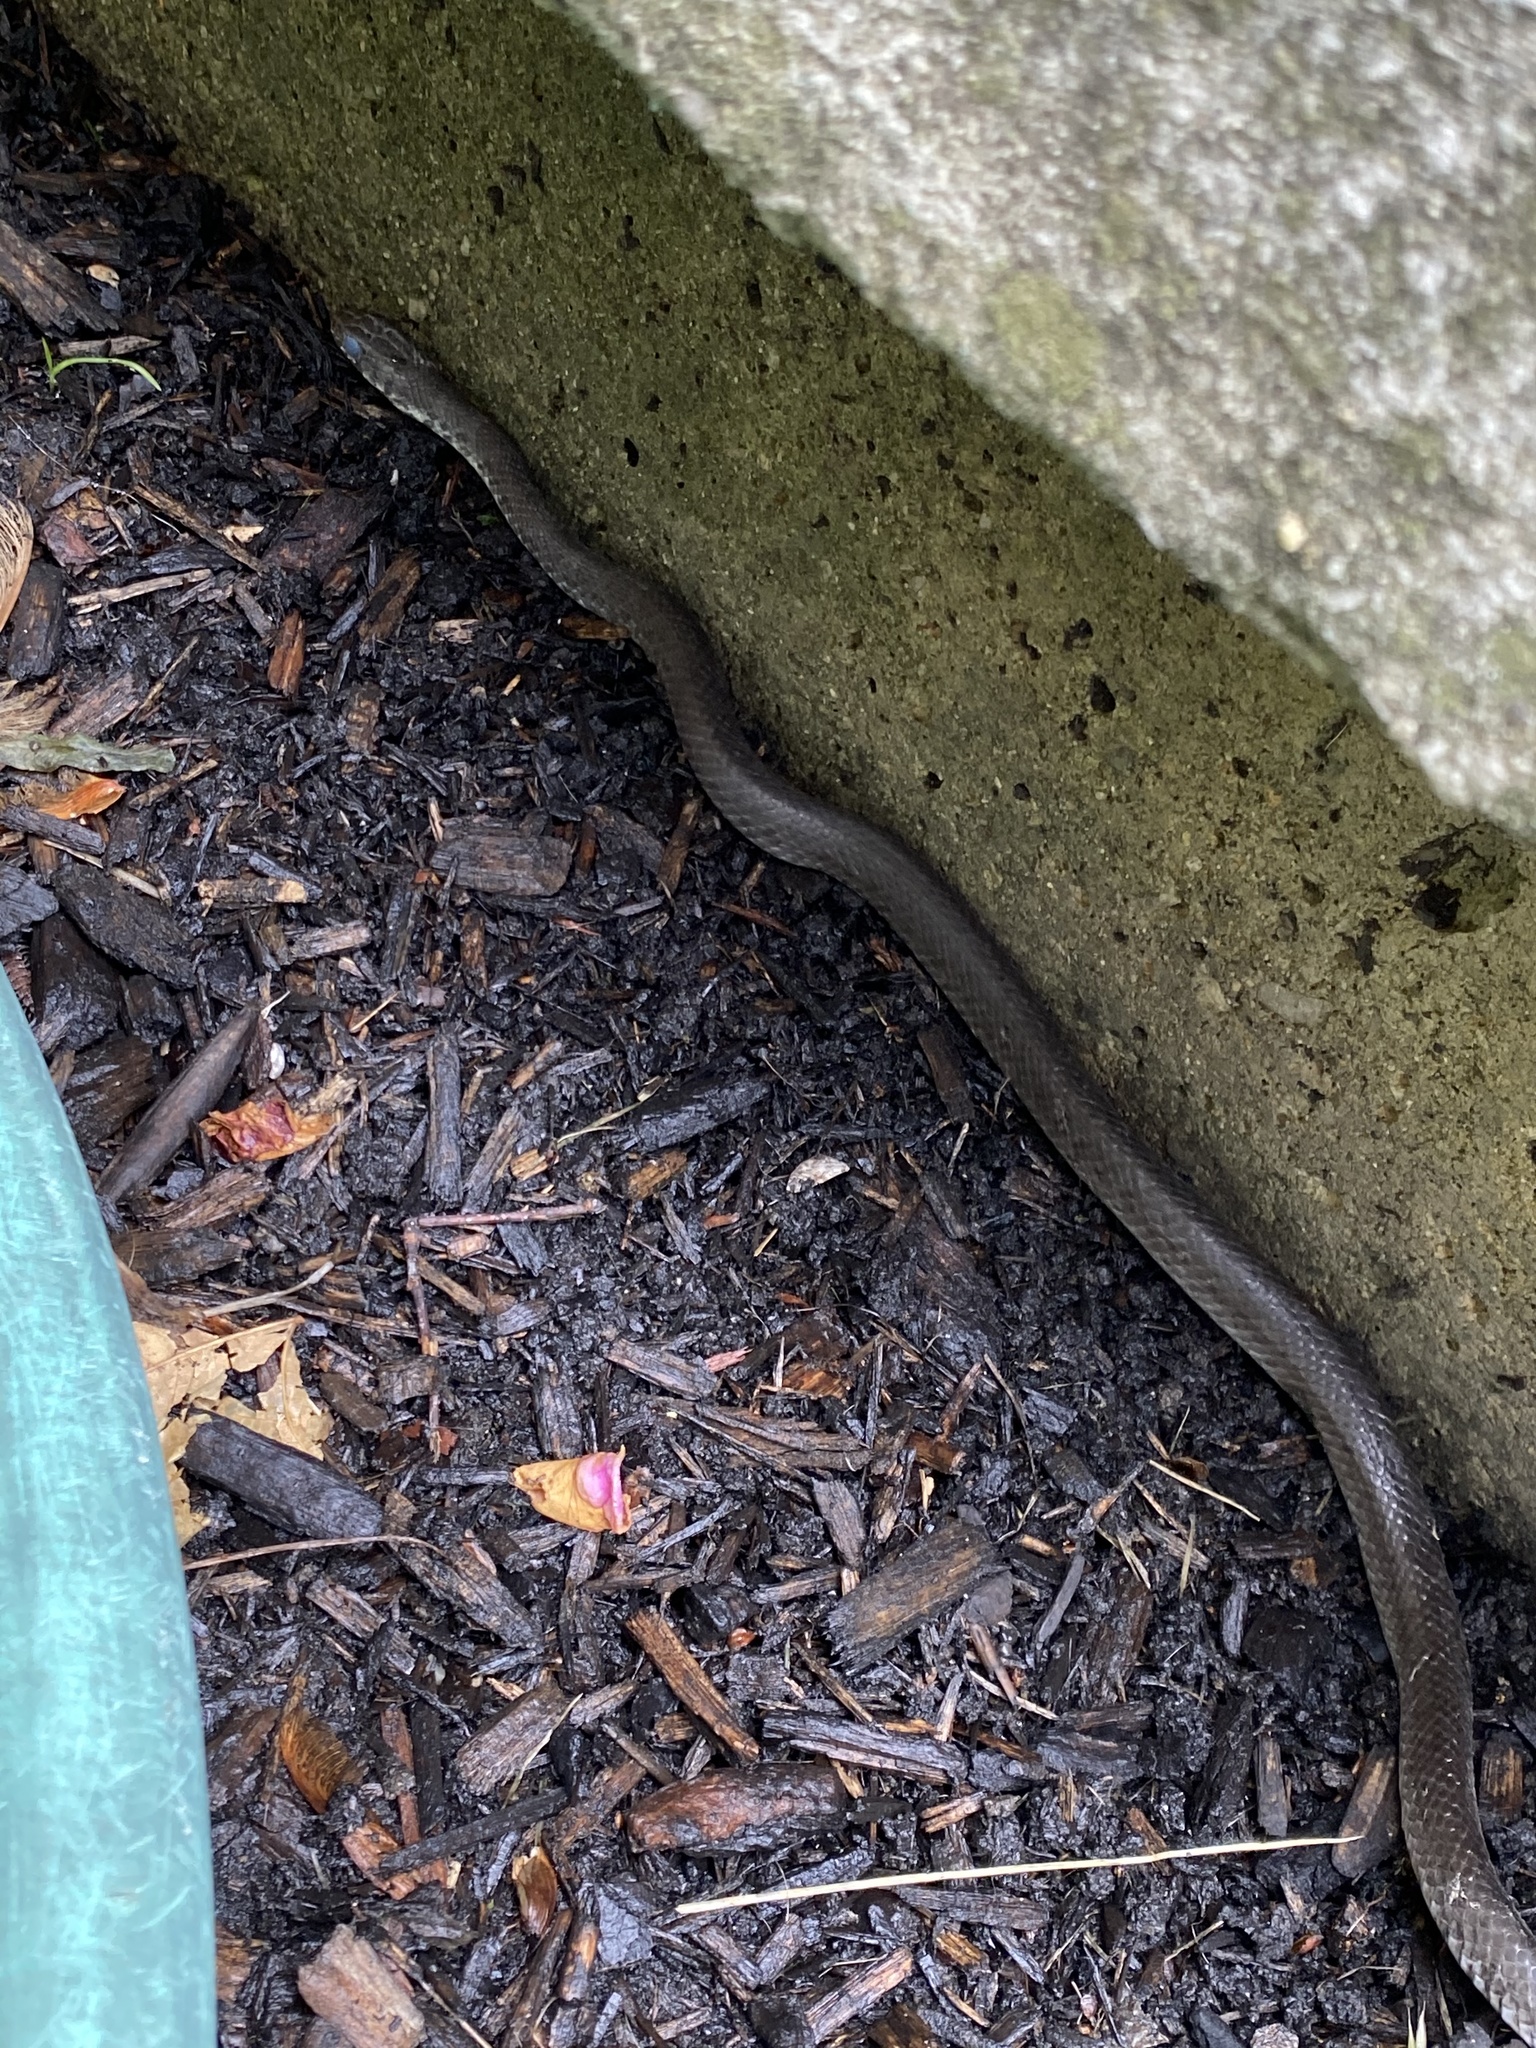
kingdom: Animalia
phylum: Chordata
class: Squamata
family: Colubridae
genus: Coluber
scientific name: Coluber constrictor
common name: Eastern racer
